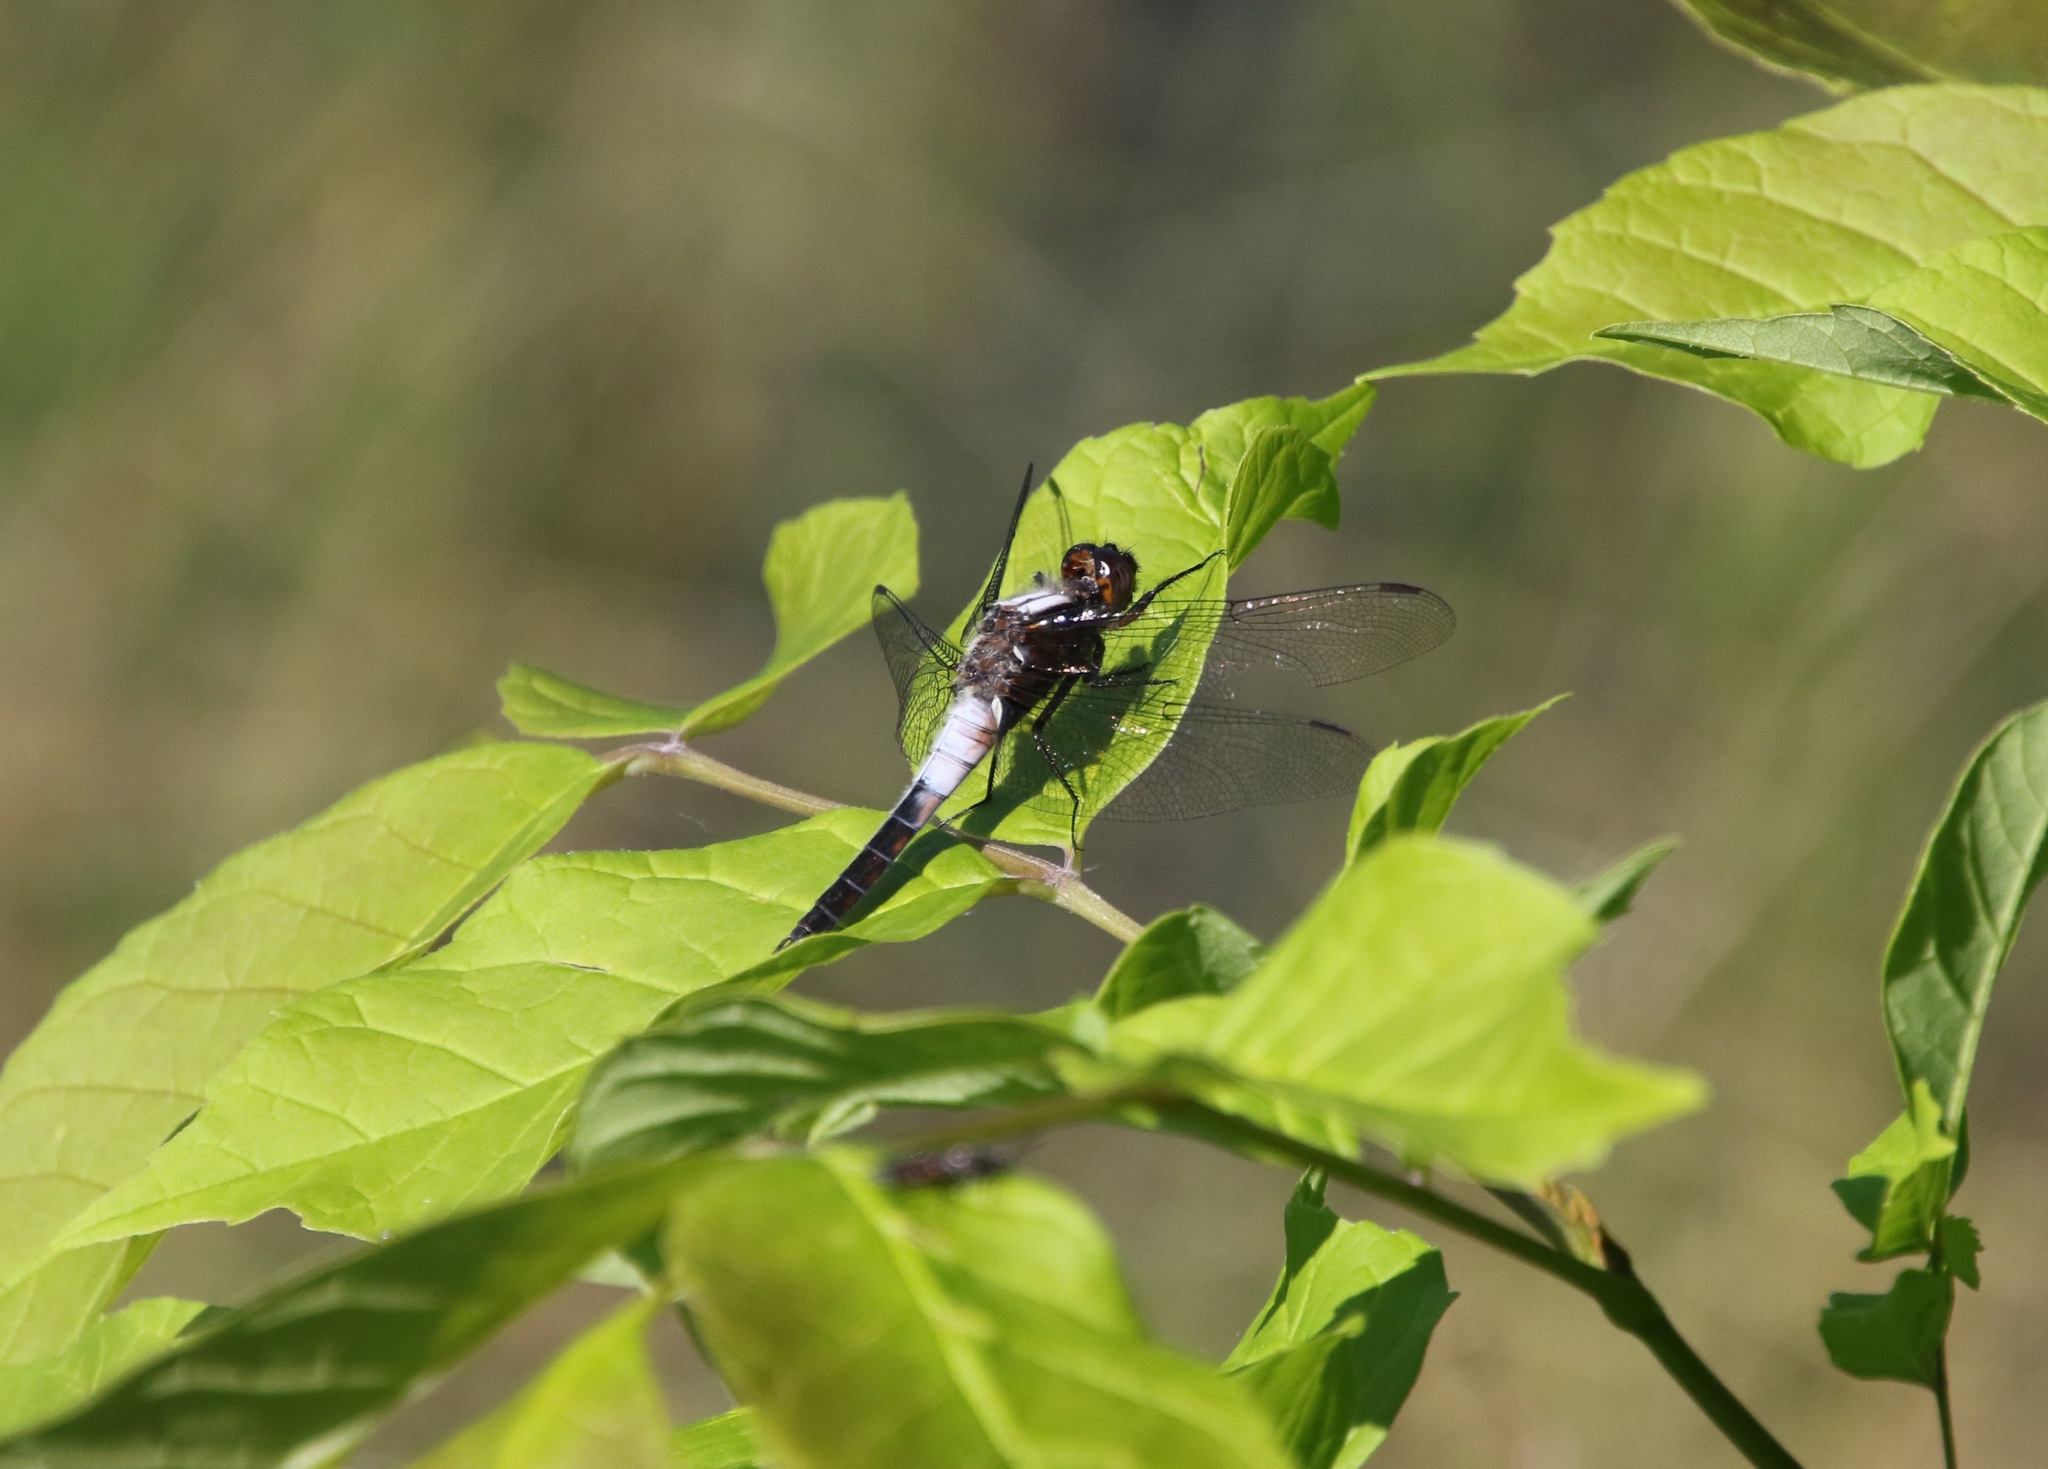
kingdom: Animalia
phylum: Arthropoda
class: Insecta
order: Odonata
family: Libellulidae
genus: Ladona
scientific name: Ladona julia
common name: Chalk-fronted corporal
